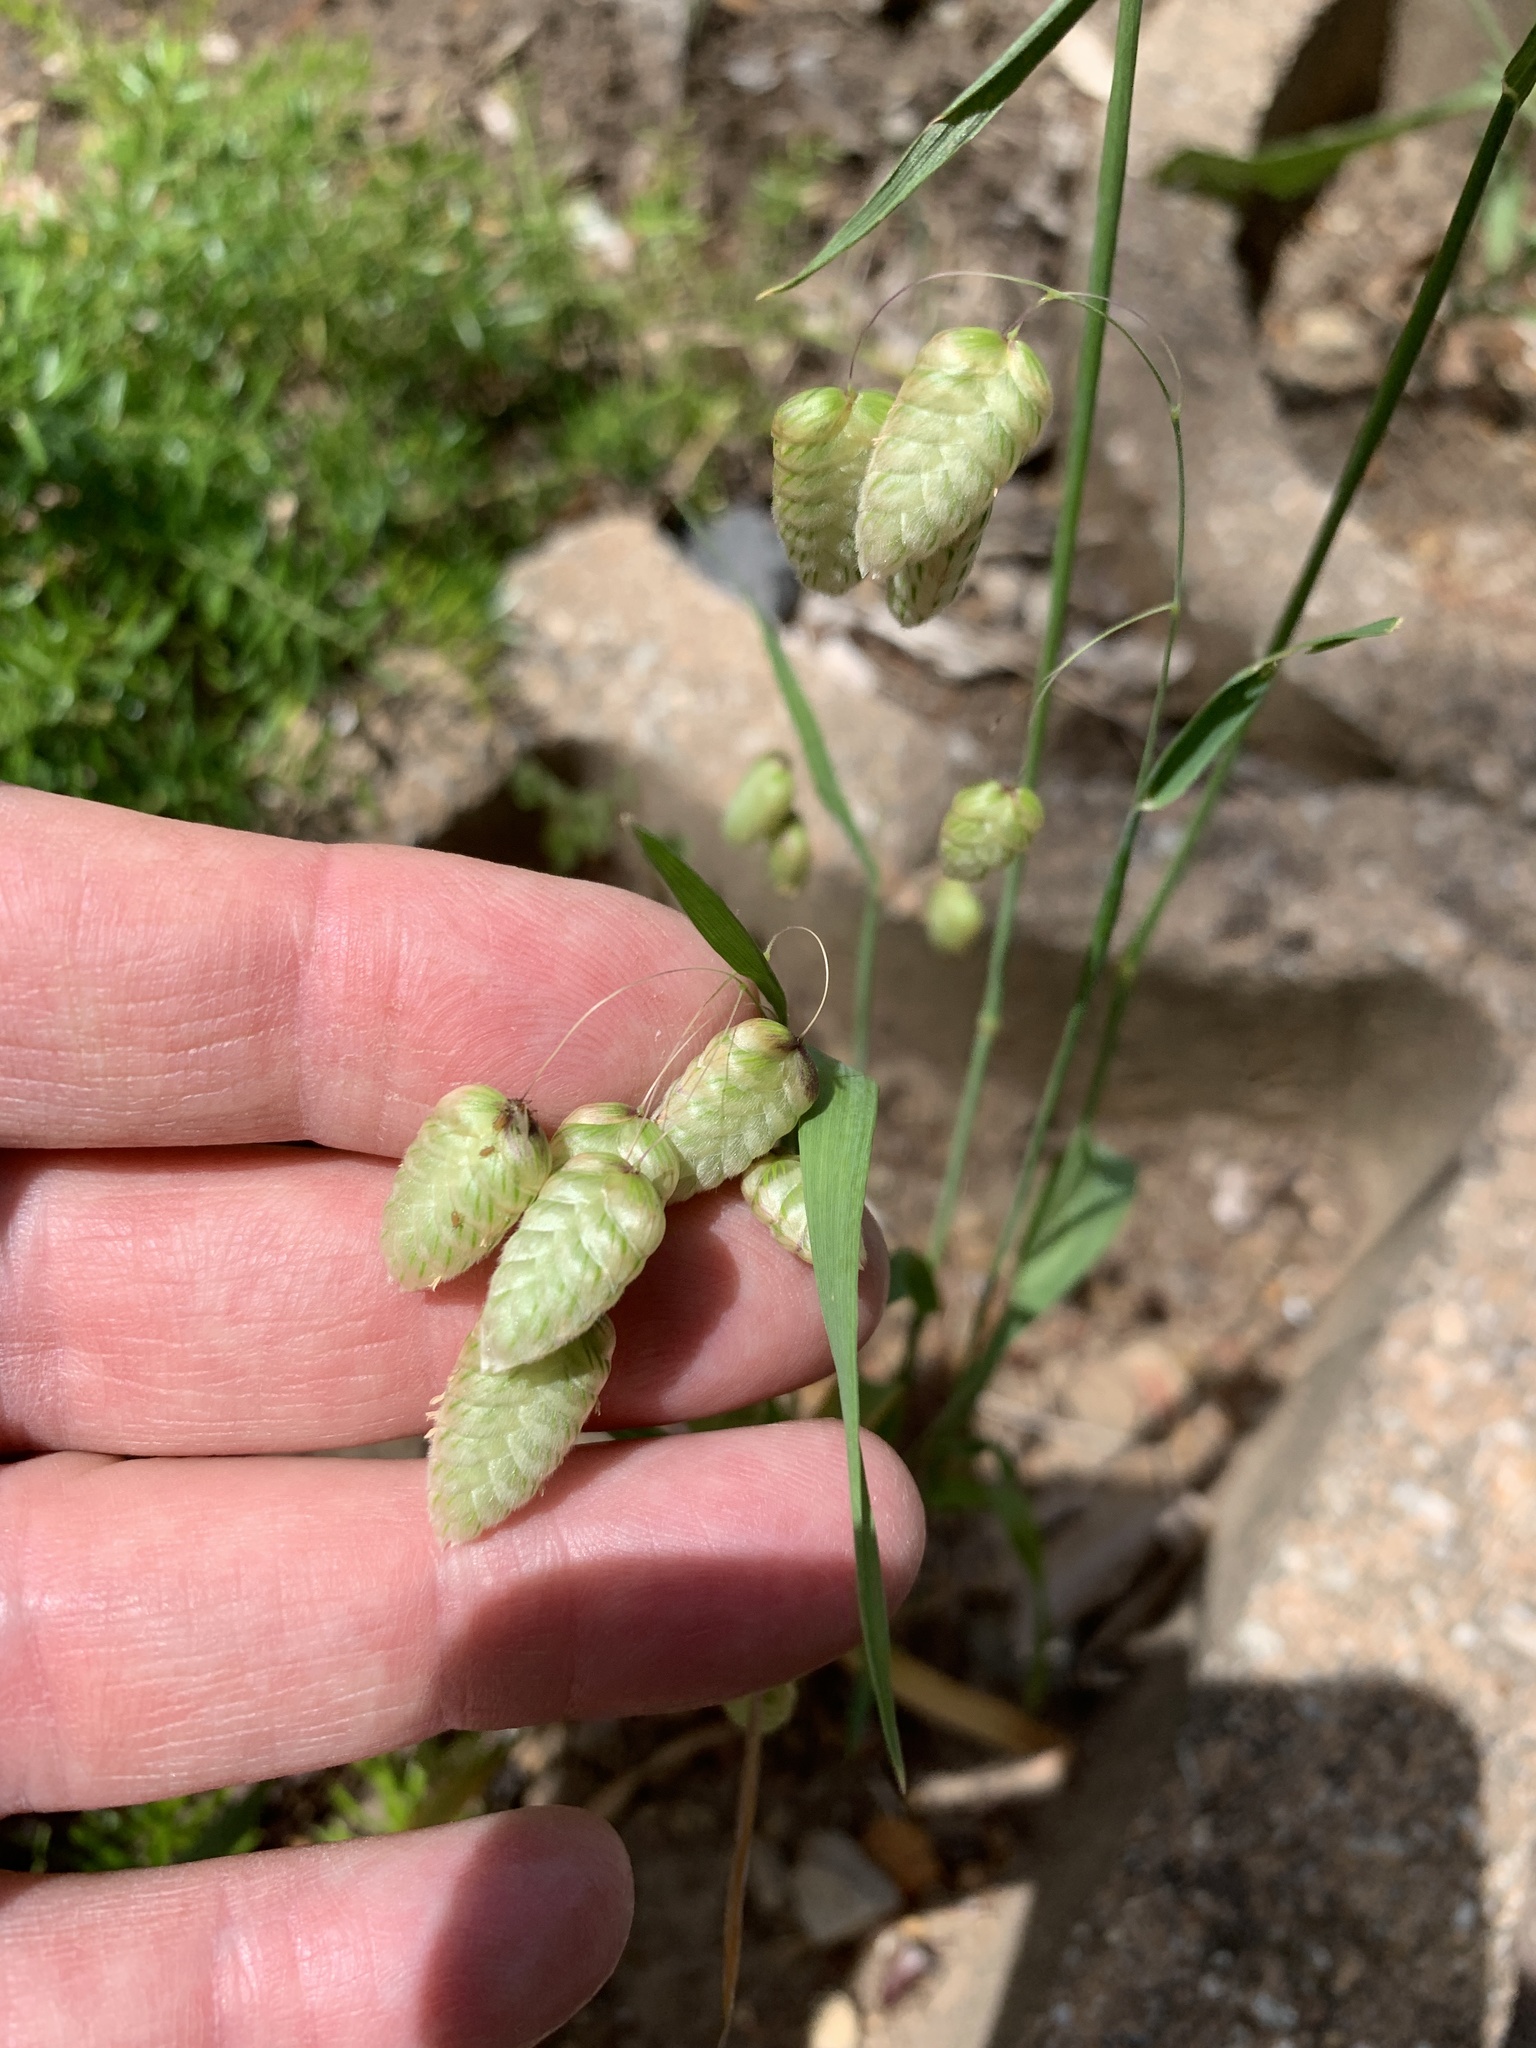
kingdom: Plantae
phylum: Tracheophyta
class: Liliopsida
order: Poales
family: Poaceae
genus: Briza
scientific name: Briza maxima
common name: Big quakinggrass
